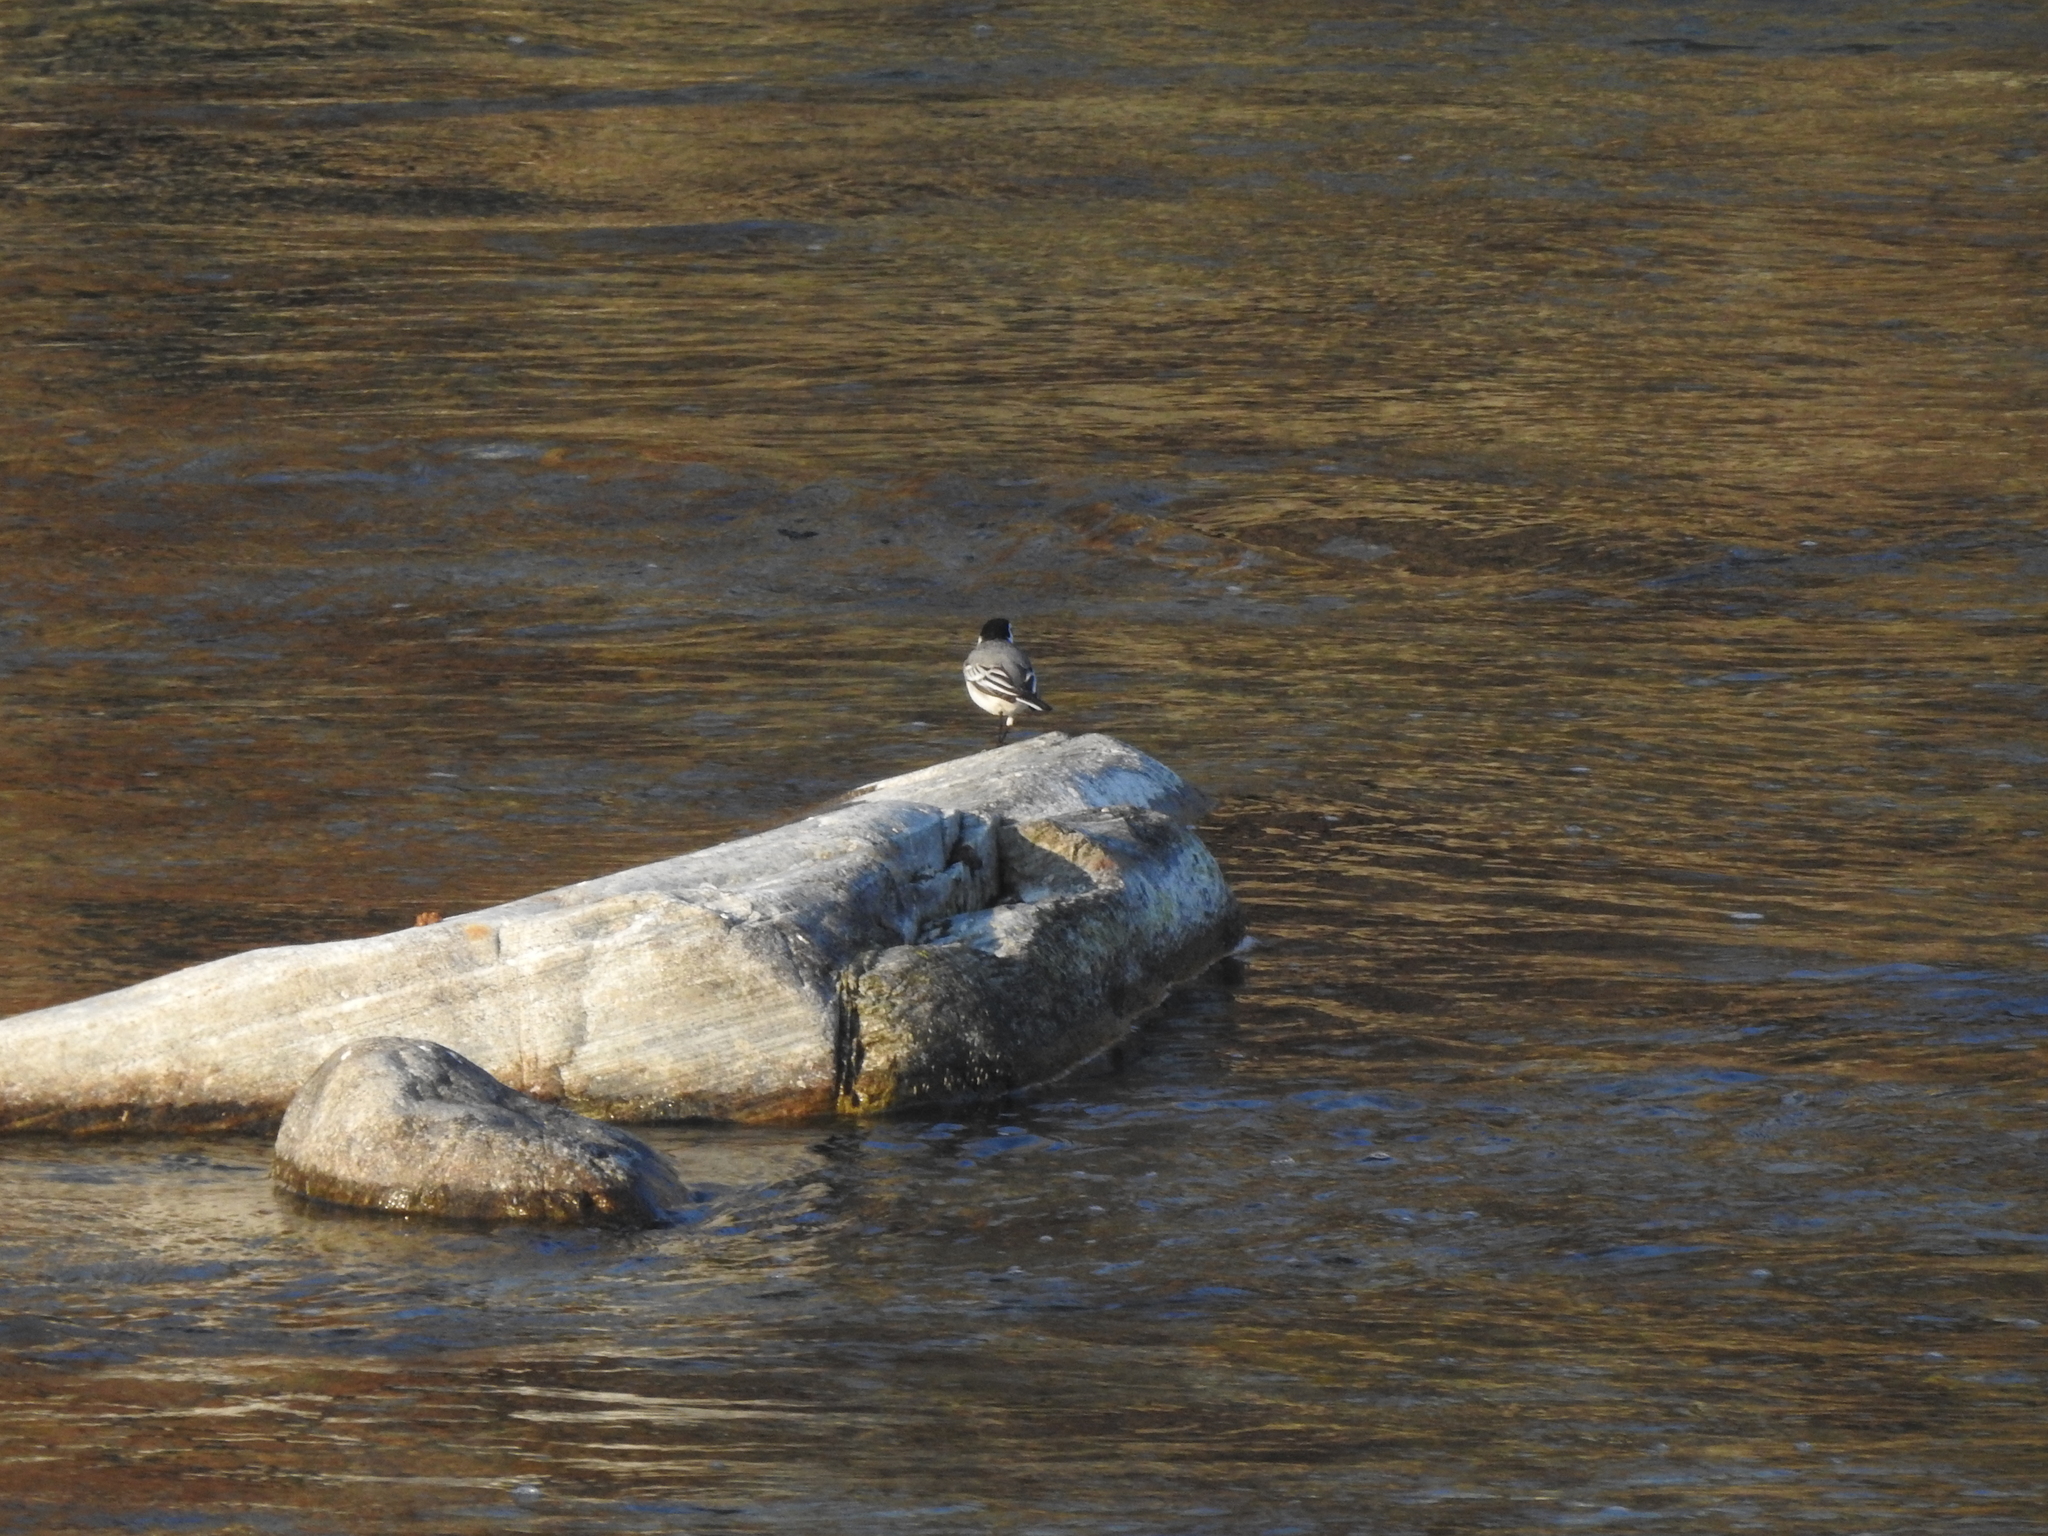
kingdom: Animalia
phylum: Chordata
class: Aves
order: Passeriformes
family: Motacillidae
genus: Motacilla
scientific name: Motacilla alba
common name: White wagtail
